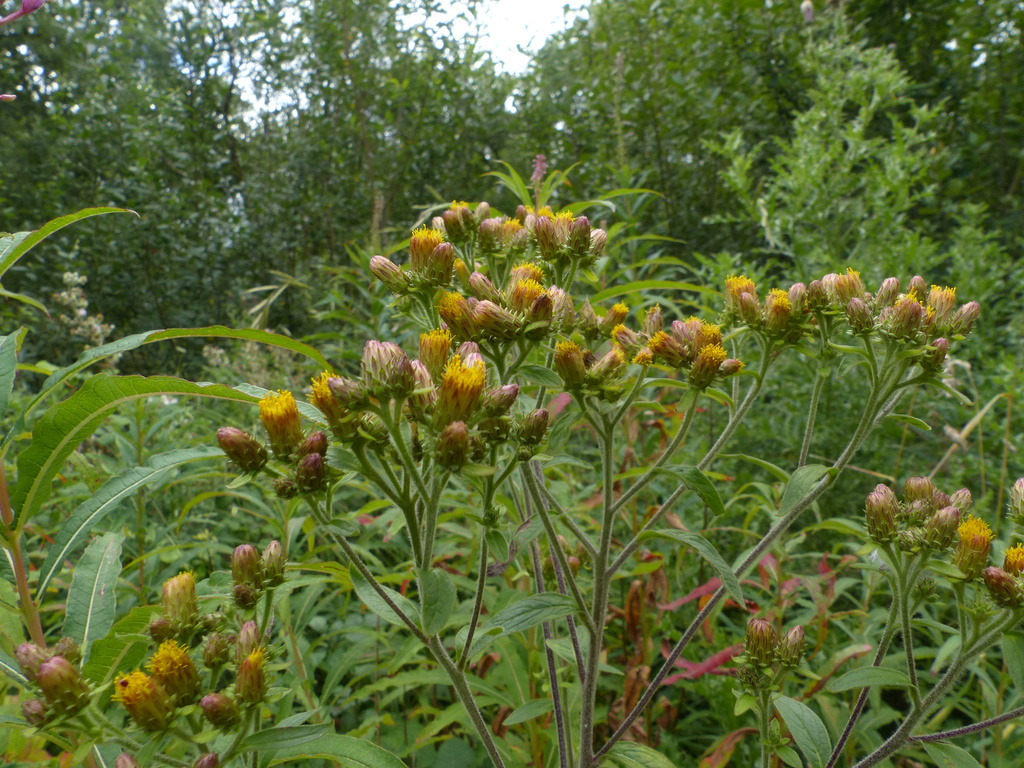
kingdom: Plantae
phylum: Tracheophyta
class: Magnoliopsida
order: Asterales
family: Asteraceae
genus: Pentanema
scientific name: Pentanema squarrosum
